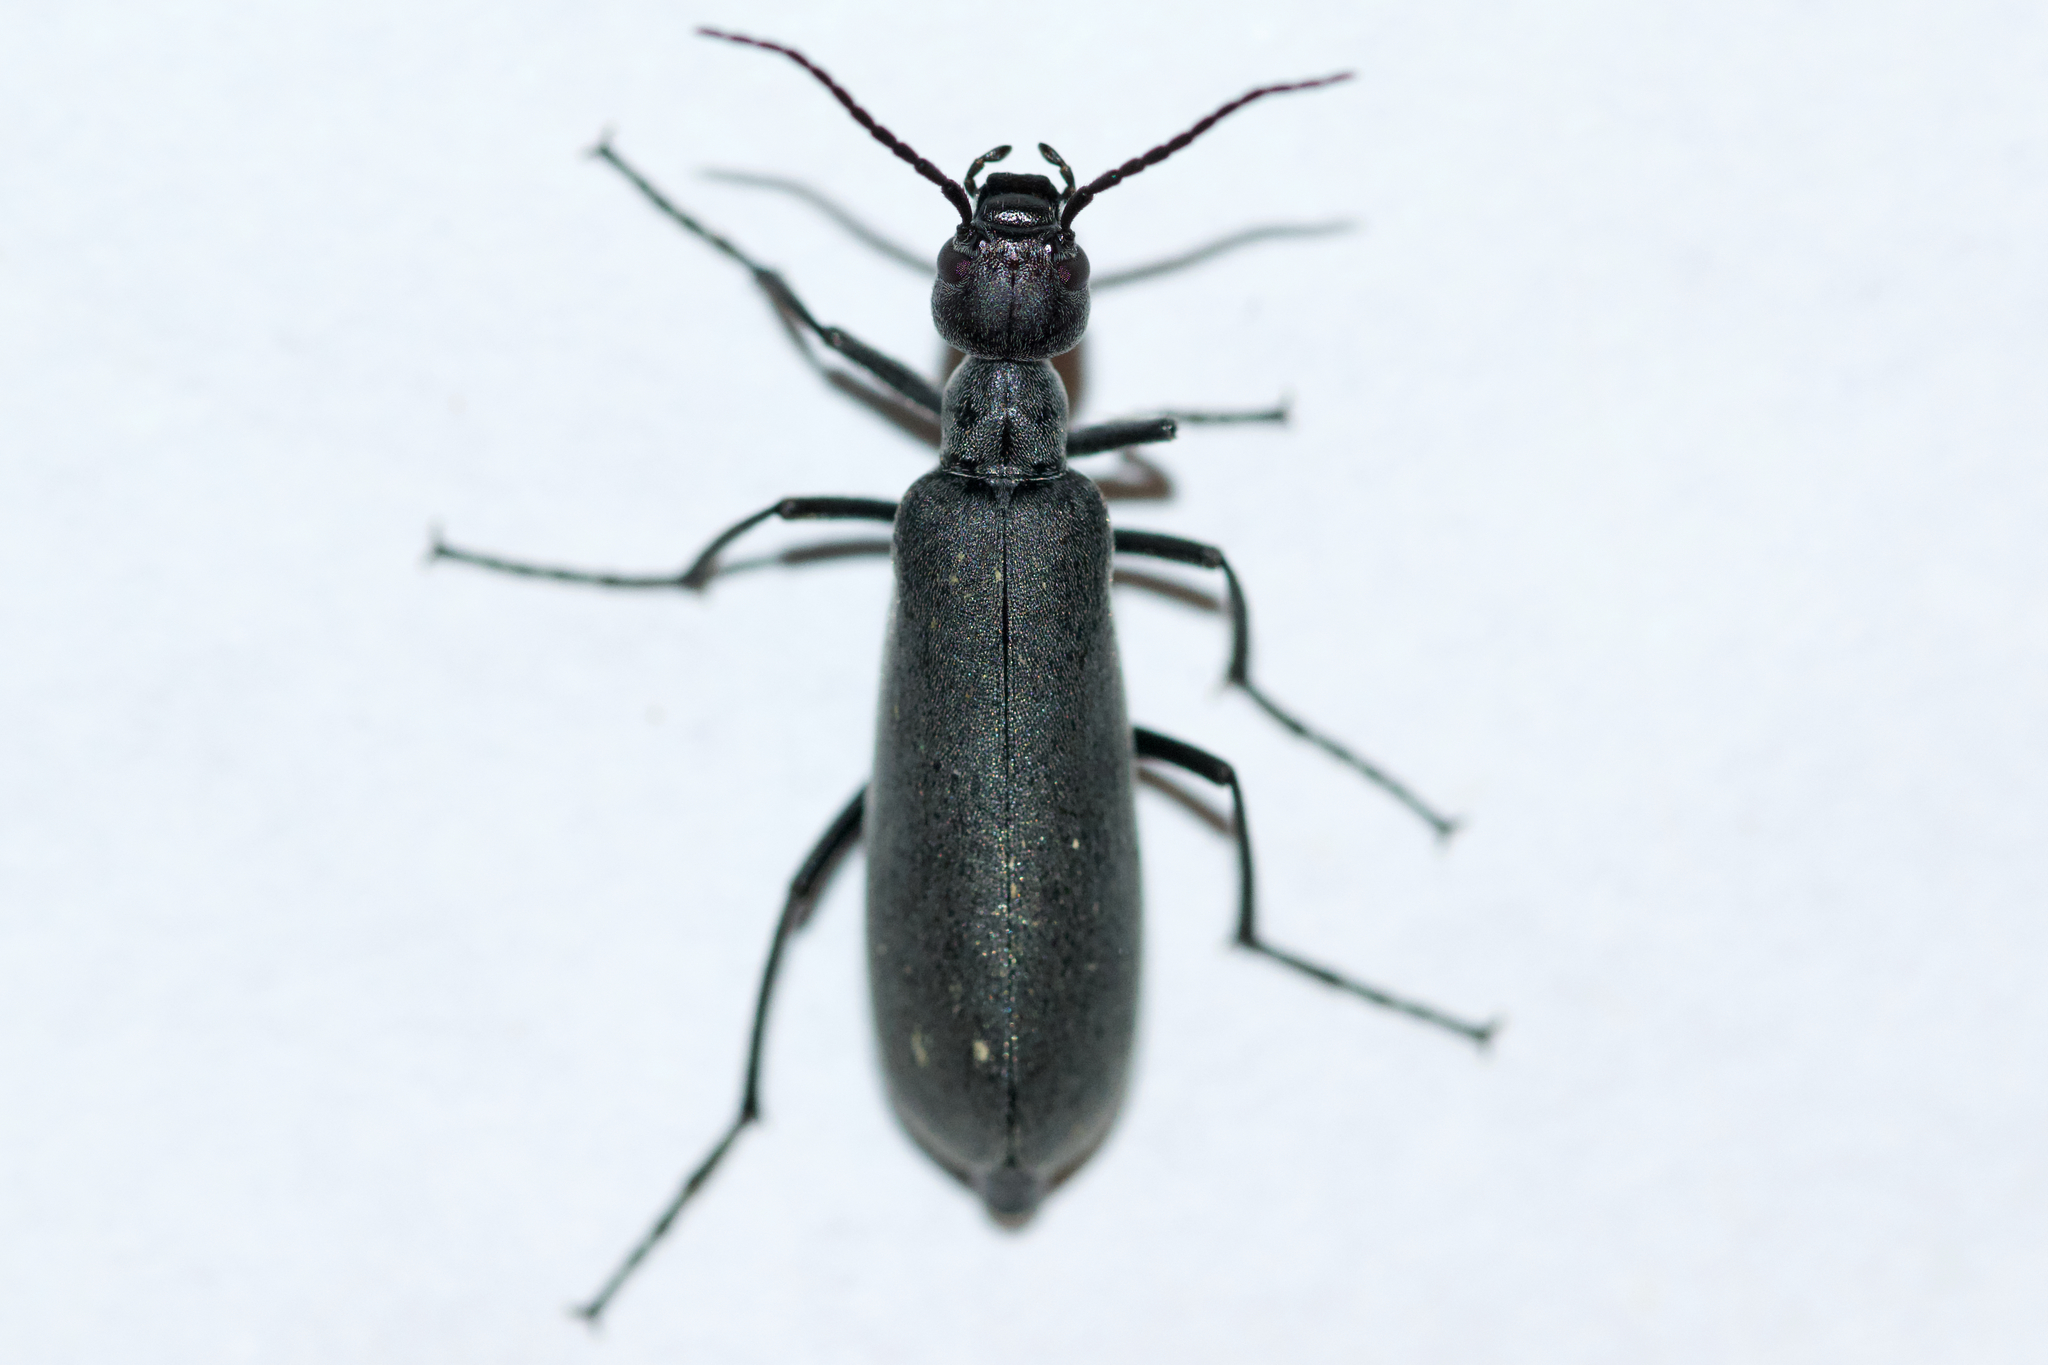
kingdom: Animalia
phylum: Arthropoda
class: Insecta
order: Coleoptera
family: Meloidae
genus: Epicauta
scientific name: Epicauta murina
